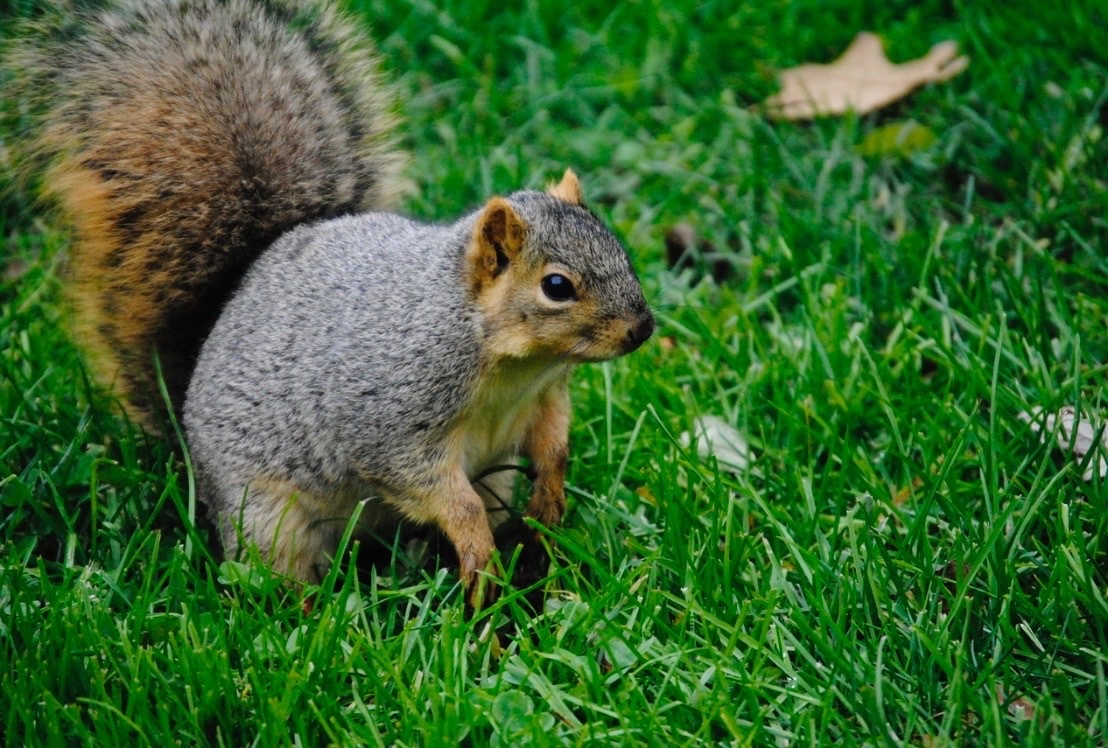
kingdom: Animalia
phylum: Chordata
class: Mammalia
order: Rodentia
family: Sciuridae
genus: Sciurus
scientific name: Sciurus niger
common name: Fox squirrel
